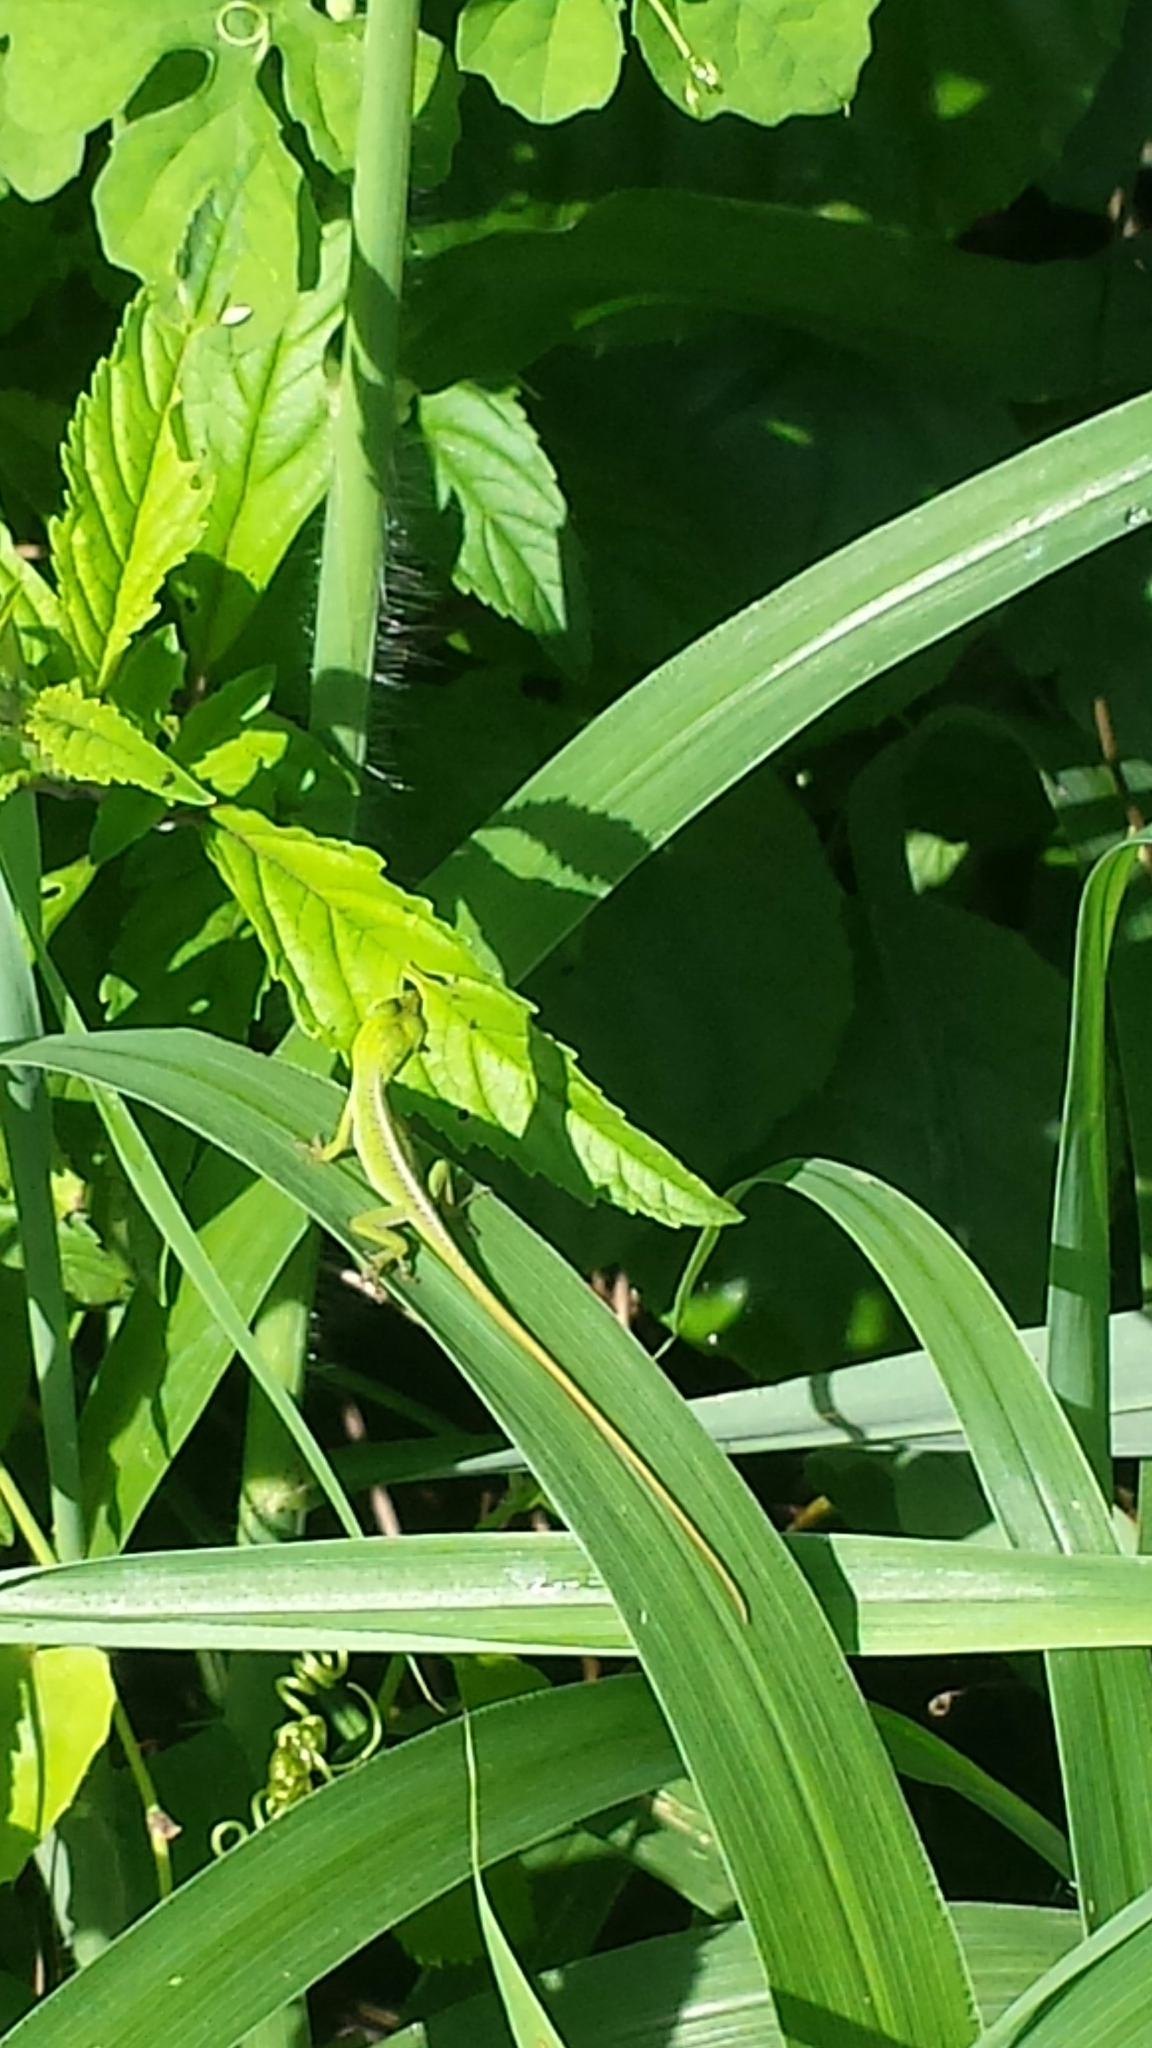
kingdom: Animalia
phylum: Chordata
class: Squamata
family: Dactyloidae
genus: Anolis
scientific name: Anolis porcatus
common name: Cuban green anole
